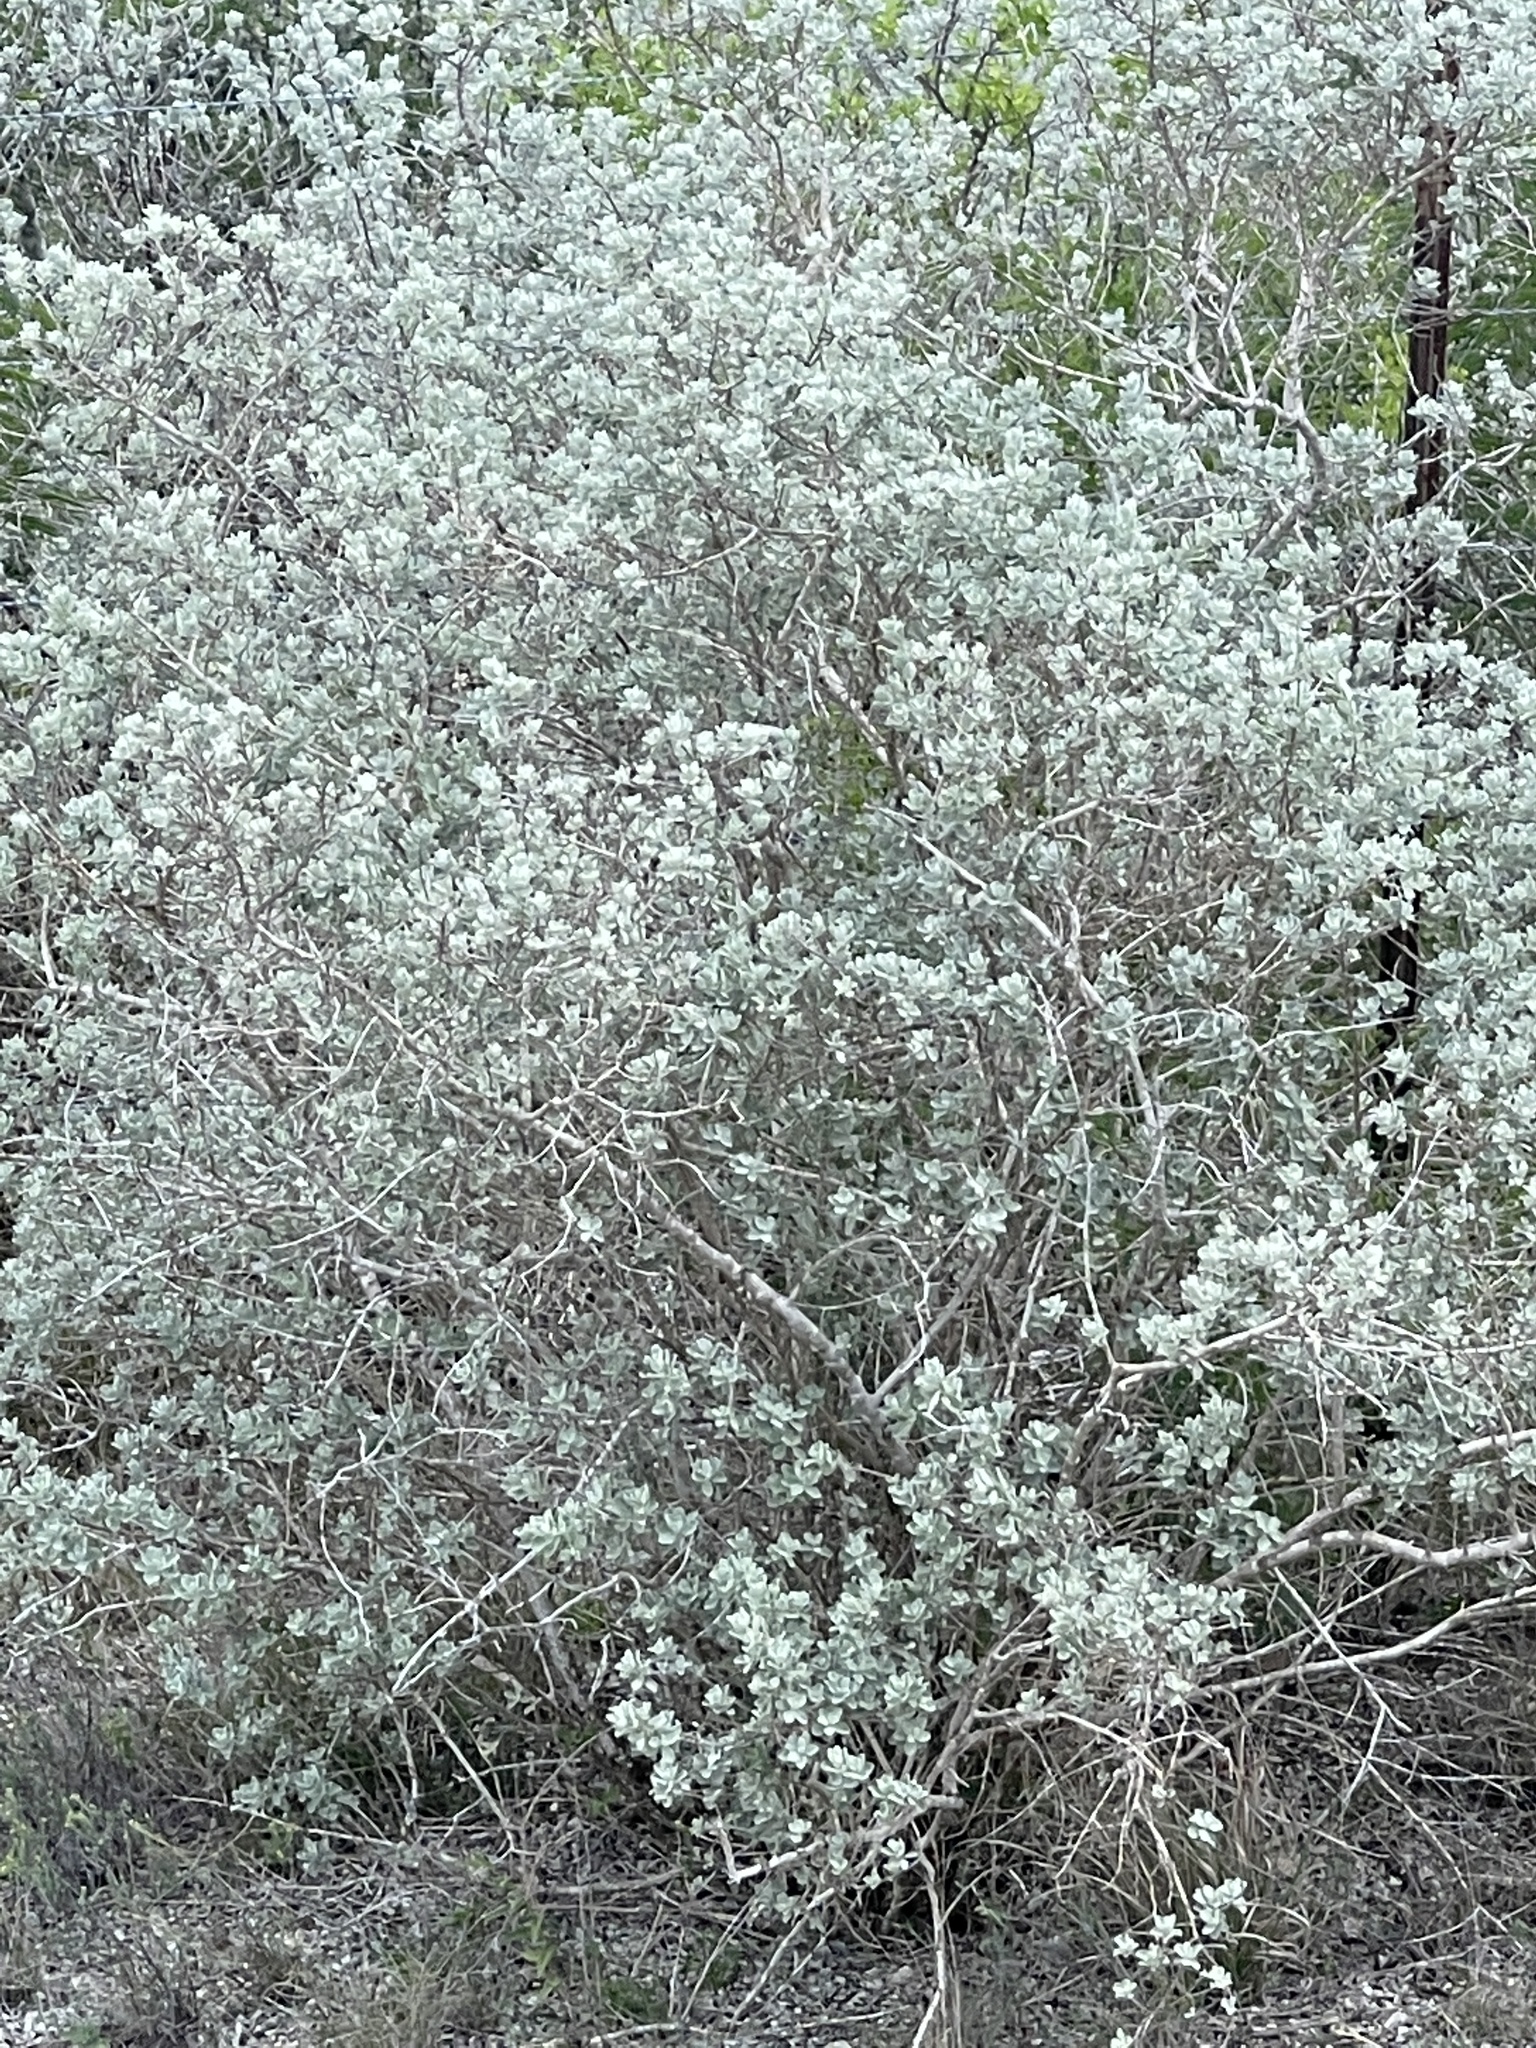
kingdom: Plantae
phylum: Tracheophyta
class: Magnoliopsida
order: Lamiales
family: Scrophulariaceae
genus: Leucophyllum
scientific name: Leucophyllum frutescens
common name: Texas silverleaf
